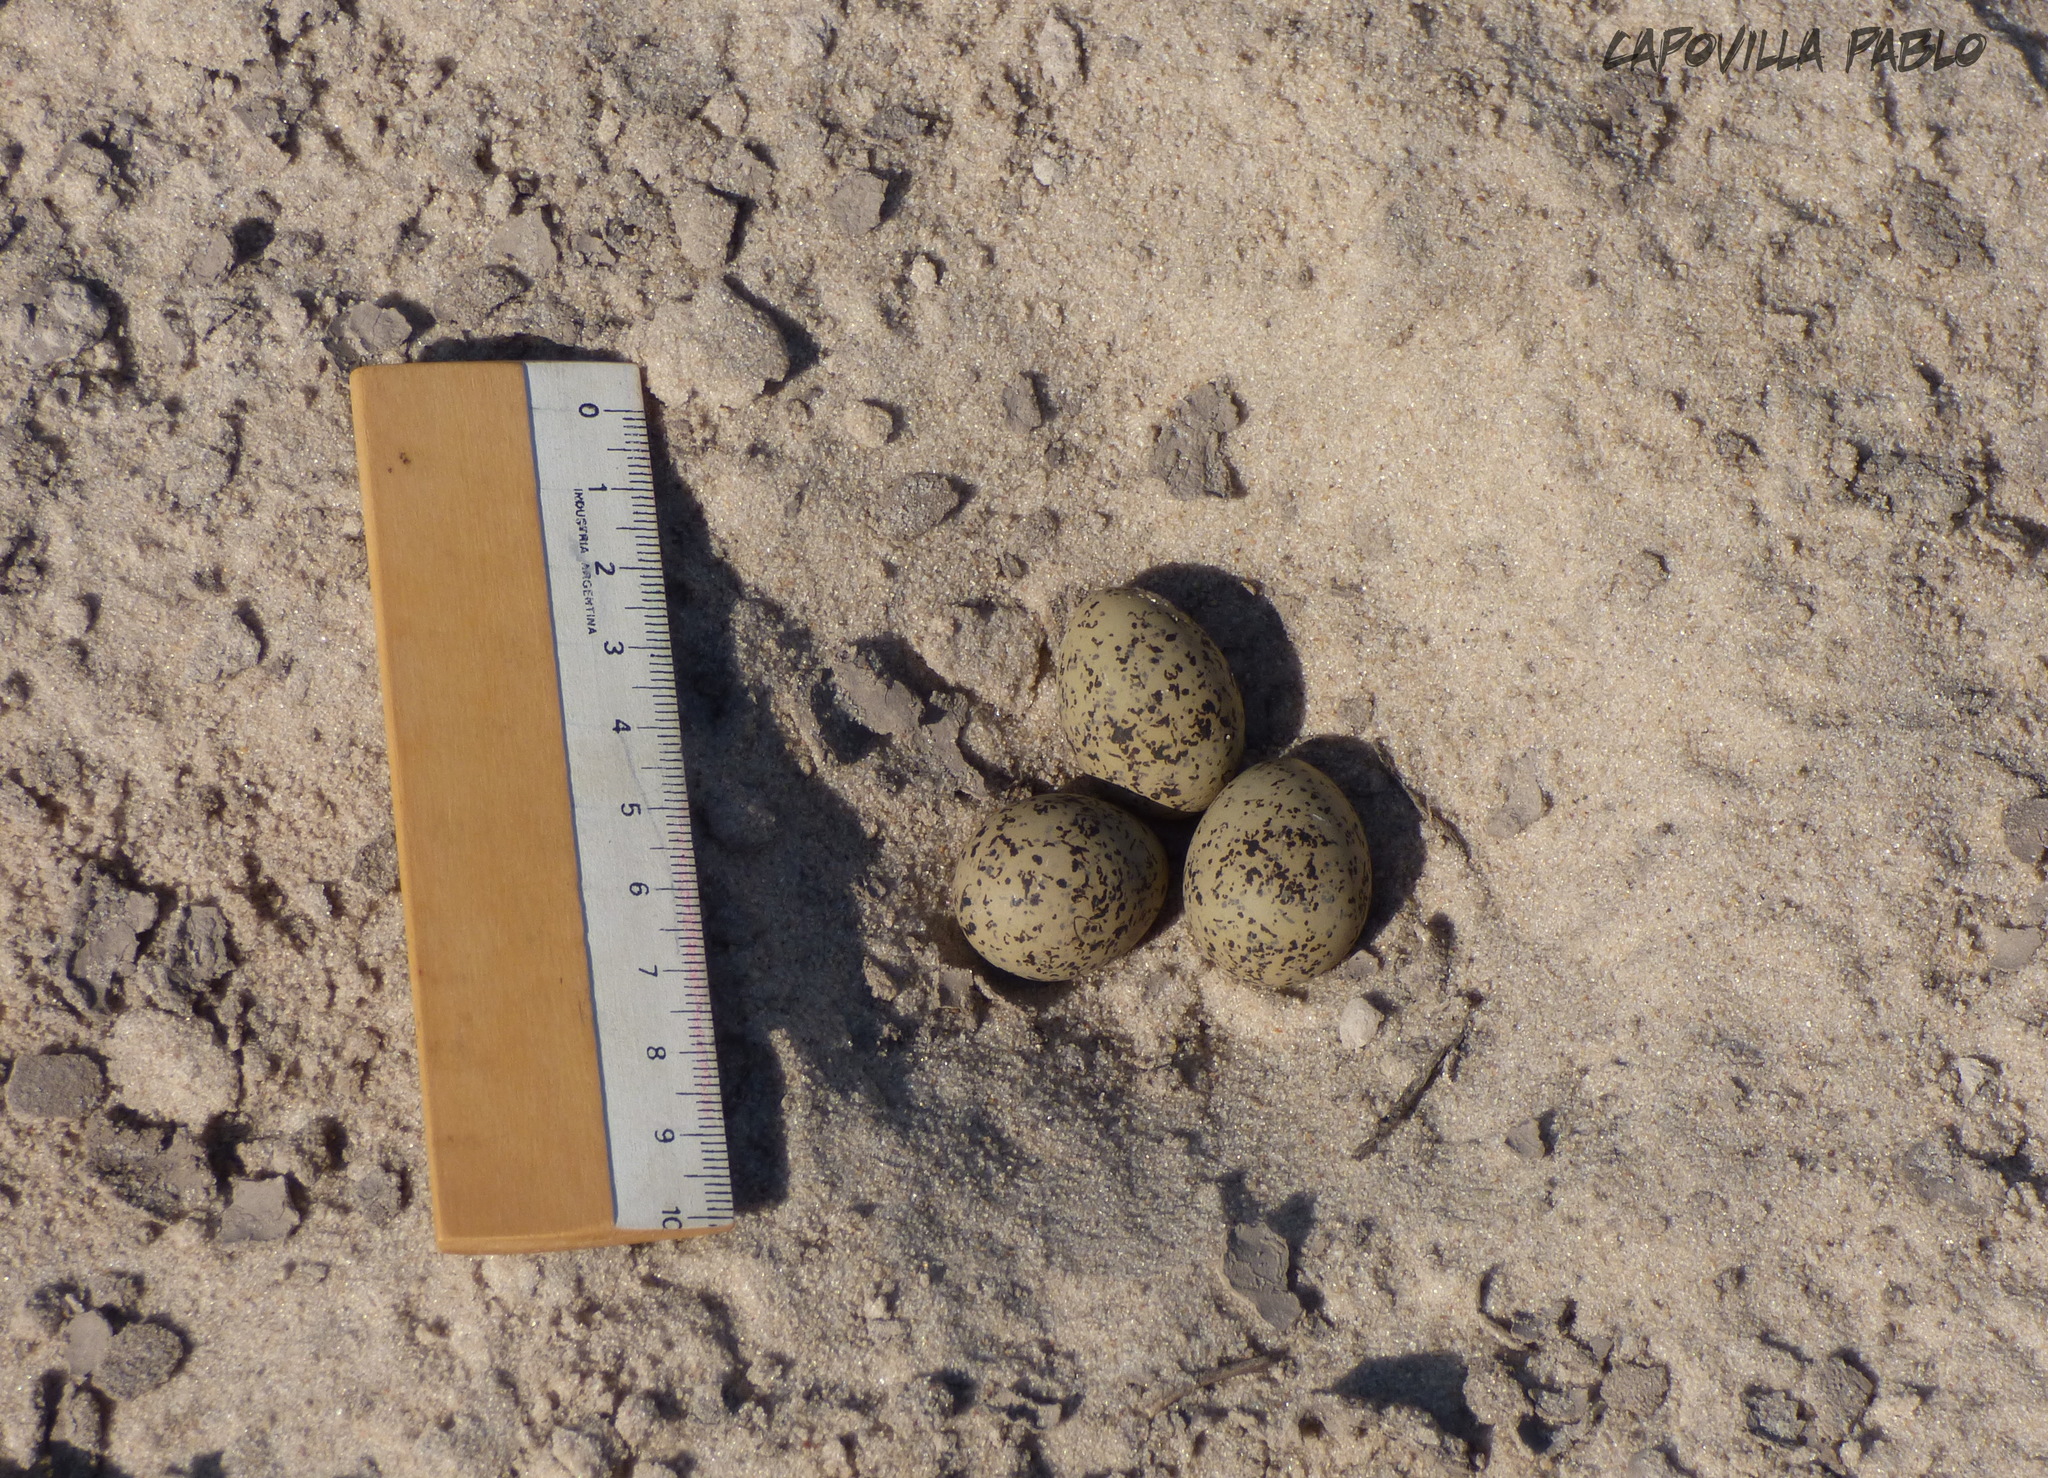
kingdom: Animalia
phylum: Chordata
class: Aves
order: Charadriiformes
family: Charadriidae
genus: Anarhynchus
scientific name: Anarhynchus
